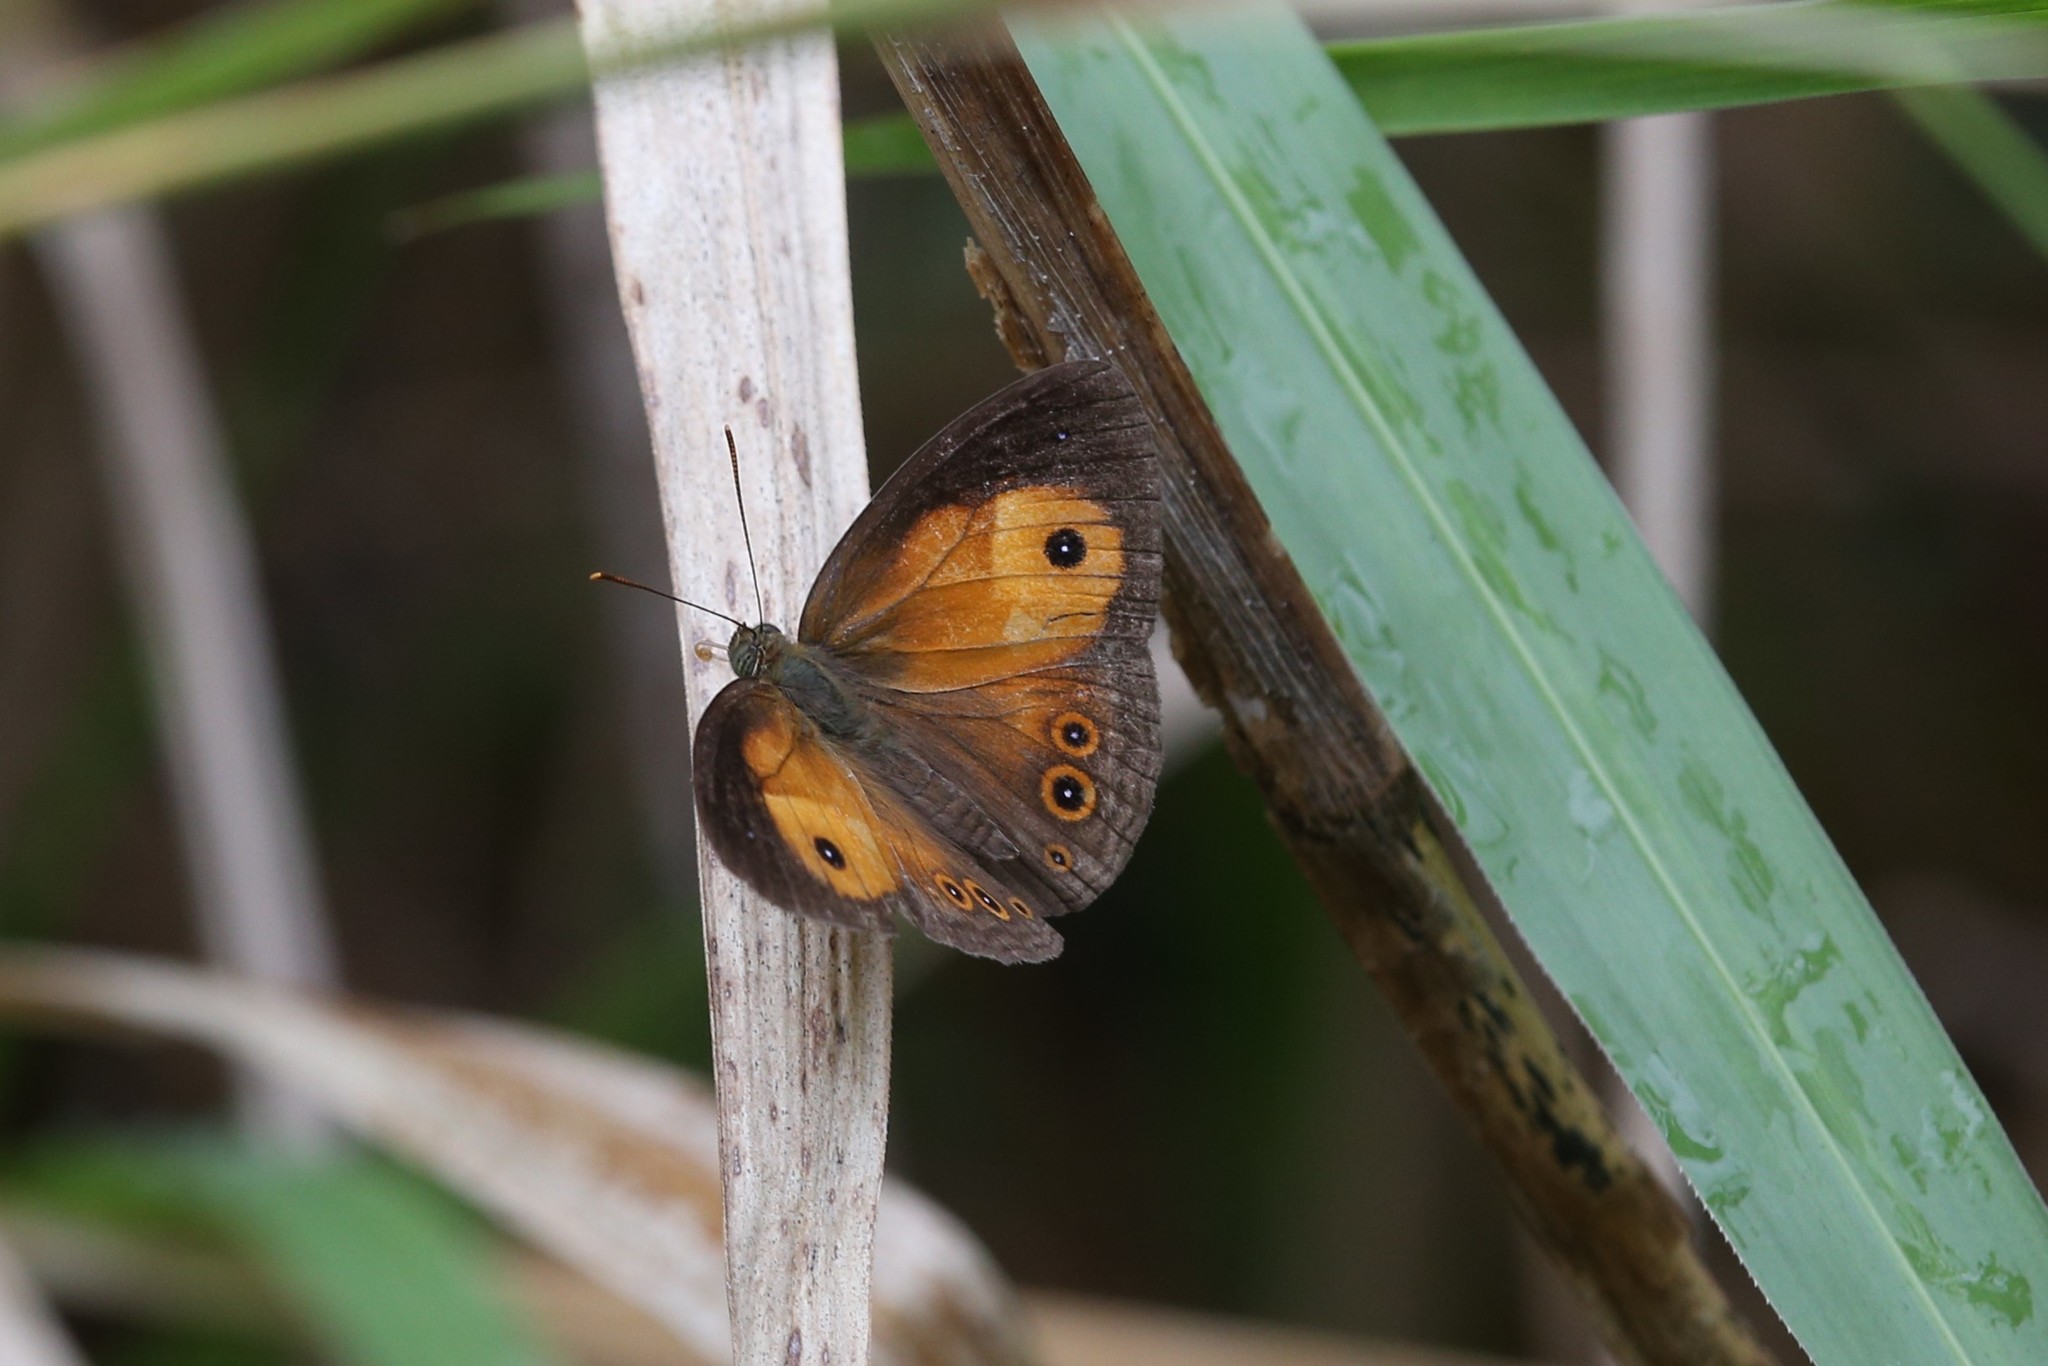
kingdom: Animalia
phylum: Arthropoda
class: Insecta
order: Lepidoptera
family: Nymphalidae
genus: Mycalesis
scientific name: Mycalesis terminus
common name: Orange bushbrown
